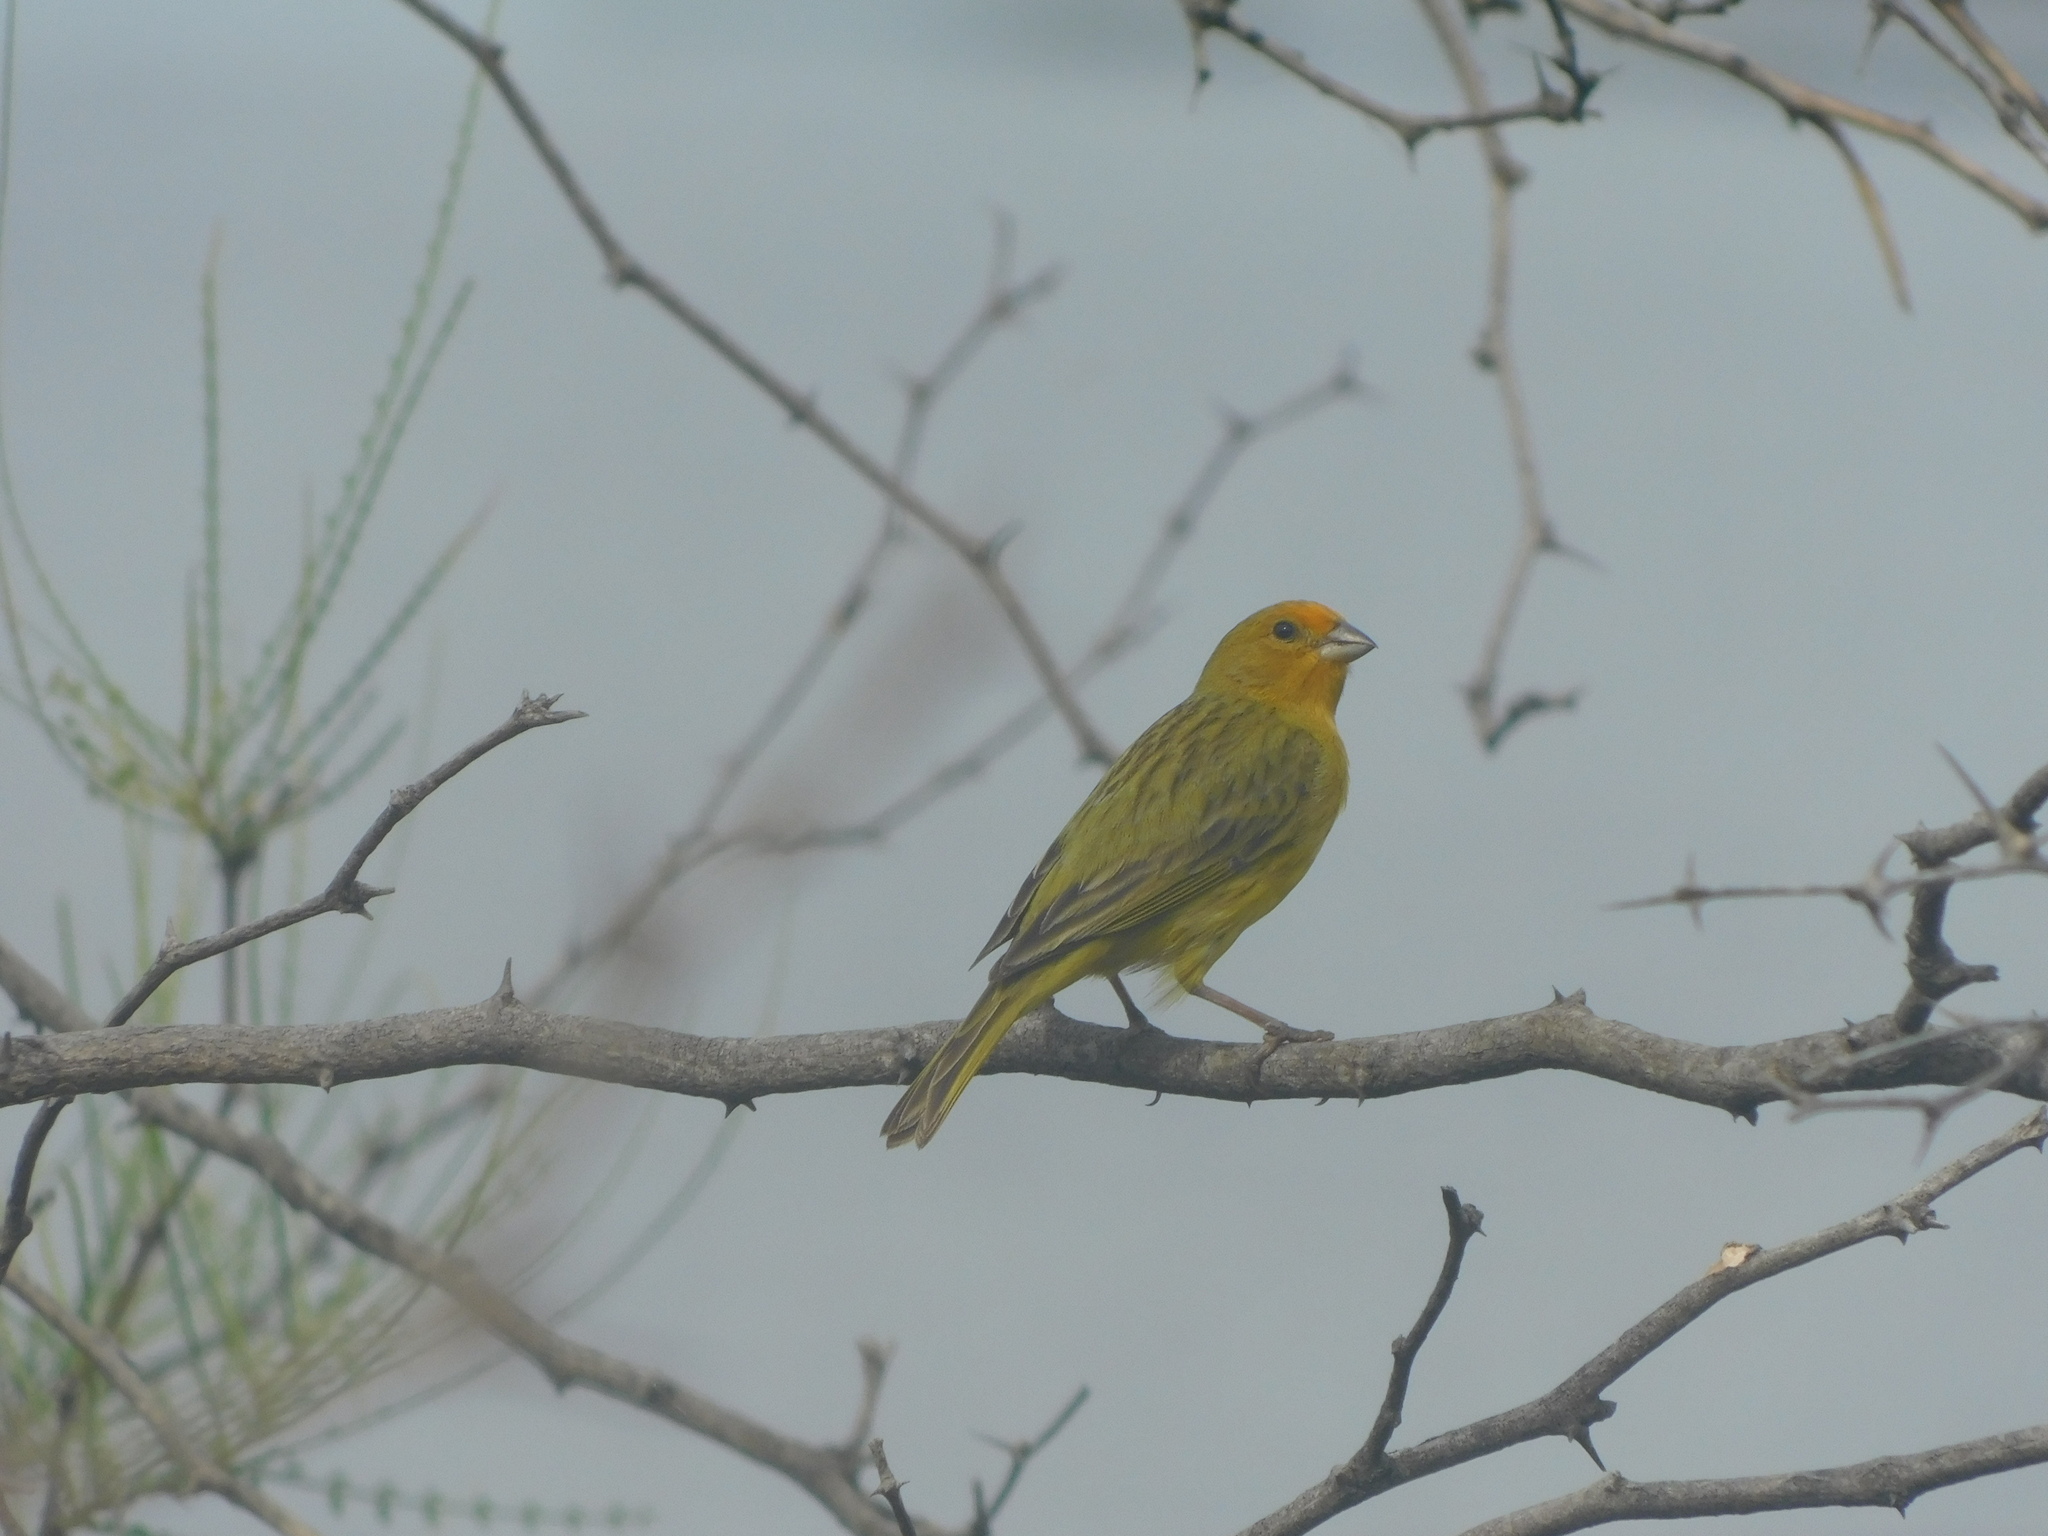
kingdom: Animalia
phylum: Chordata
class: Aves
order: Passeriformes
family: Thraupidae
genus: Sicalis
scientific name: Sicalis flaveola
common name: Saffron finch
